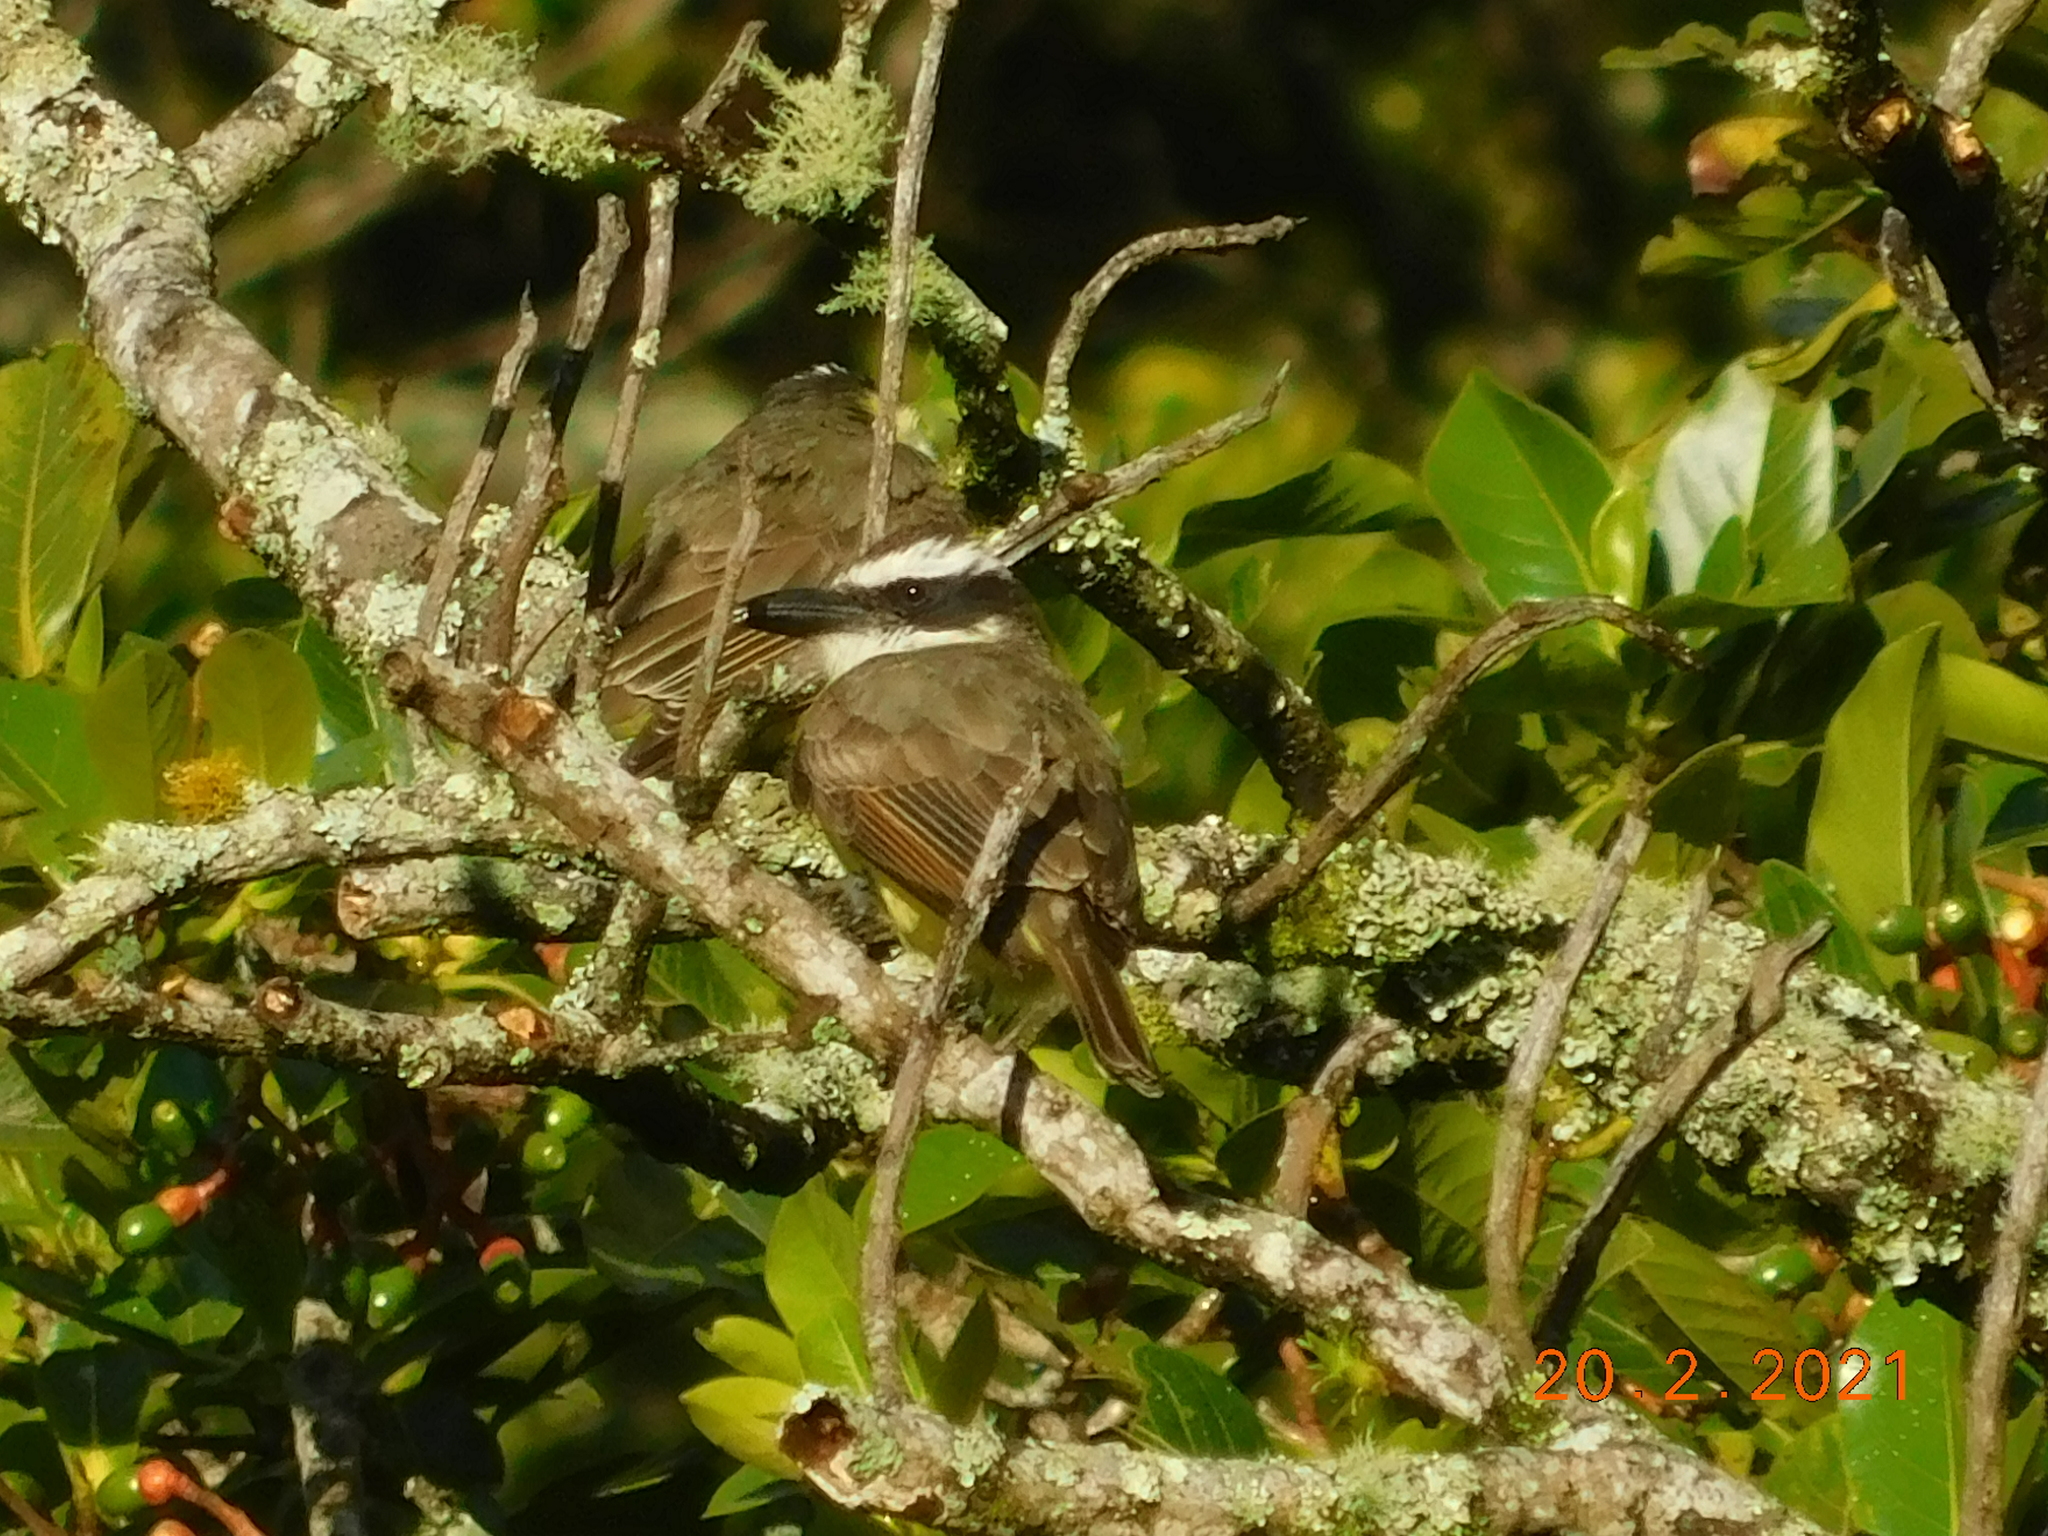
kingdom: Animalia
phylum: Chordata
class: Aves
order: Passeriformes
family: Tyrannidae
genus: Megarynchus
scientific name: Megarynchus pitangua
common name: Boat-billed flycatcher
